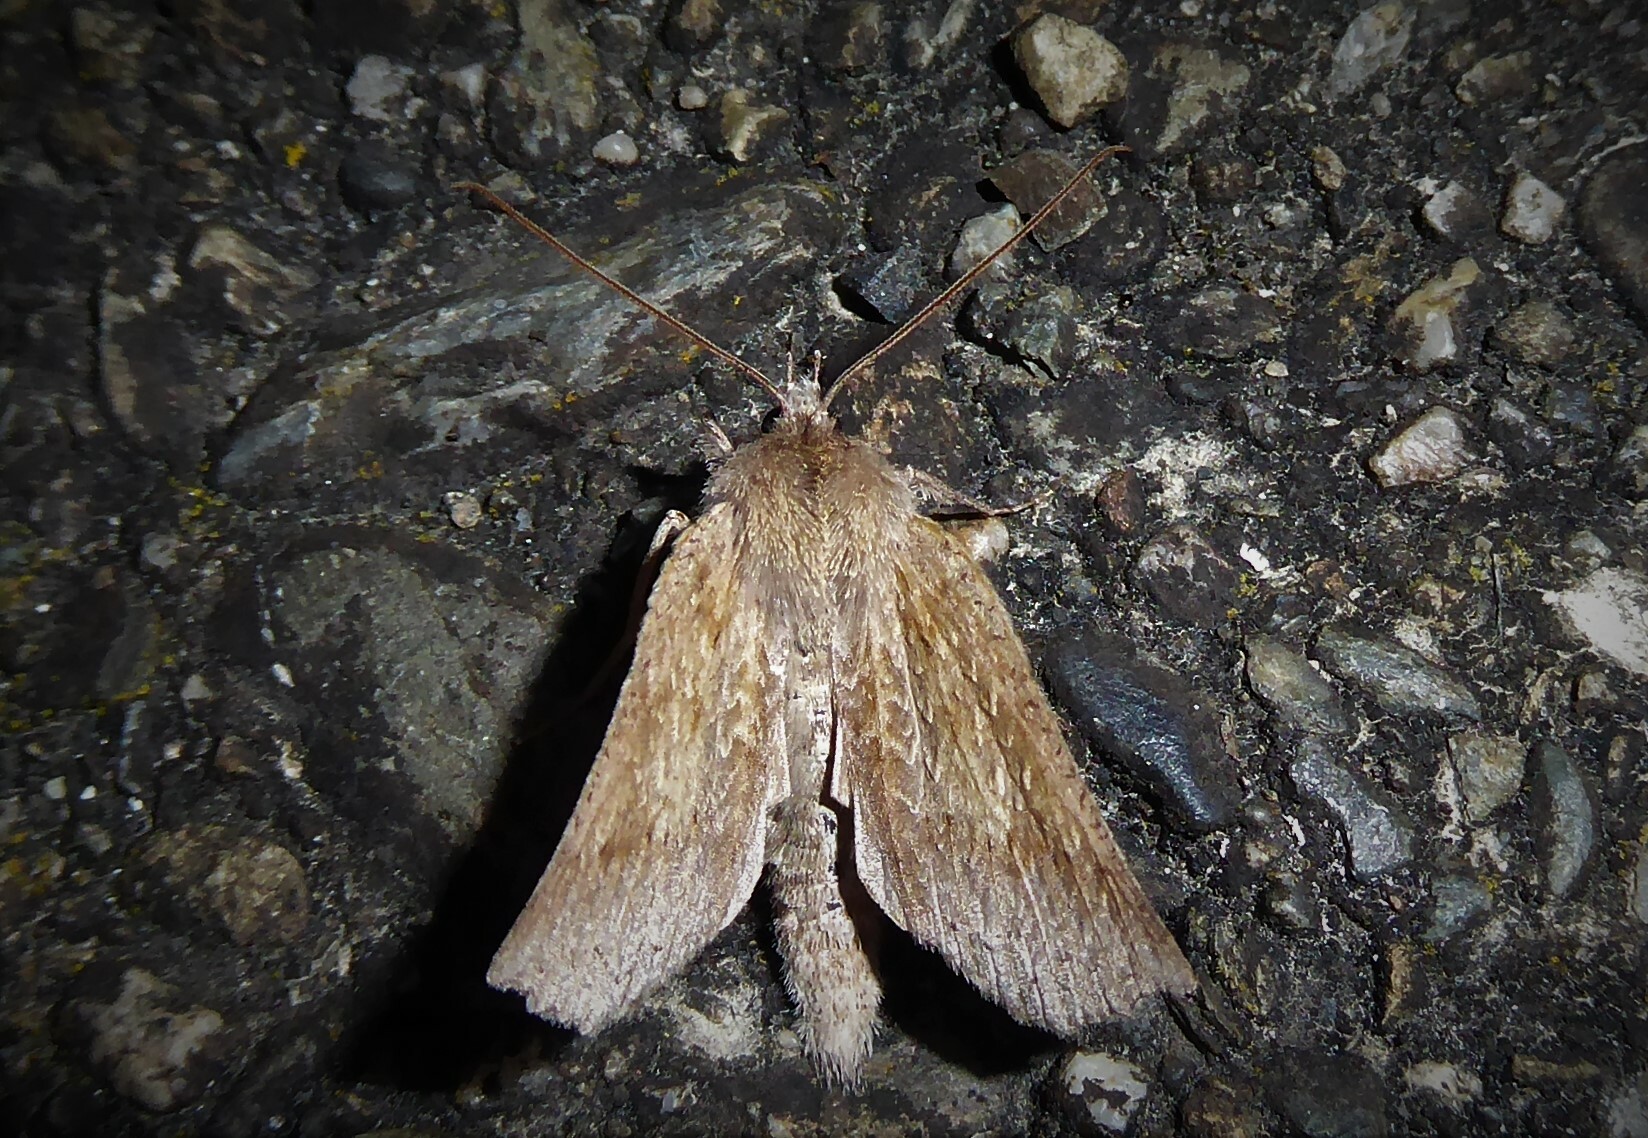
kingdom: Animalia
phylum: Arthropoda
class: Insecta
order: Lepidoptera
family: Geometridae
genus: Declana
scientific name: Declana leptomera
